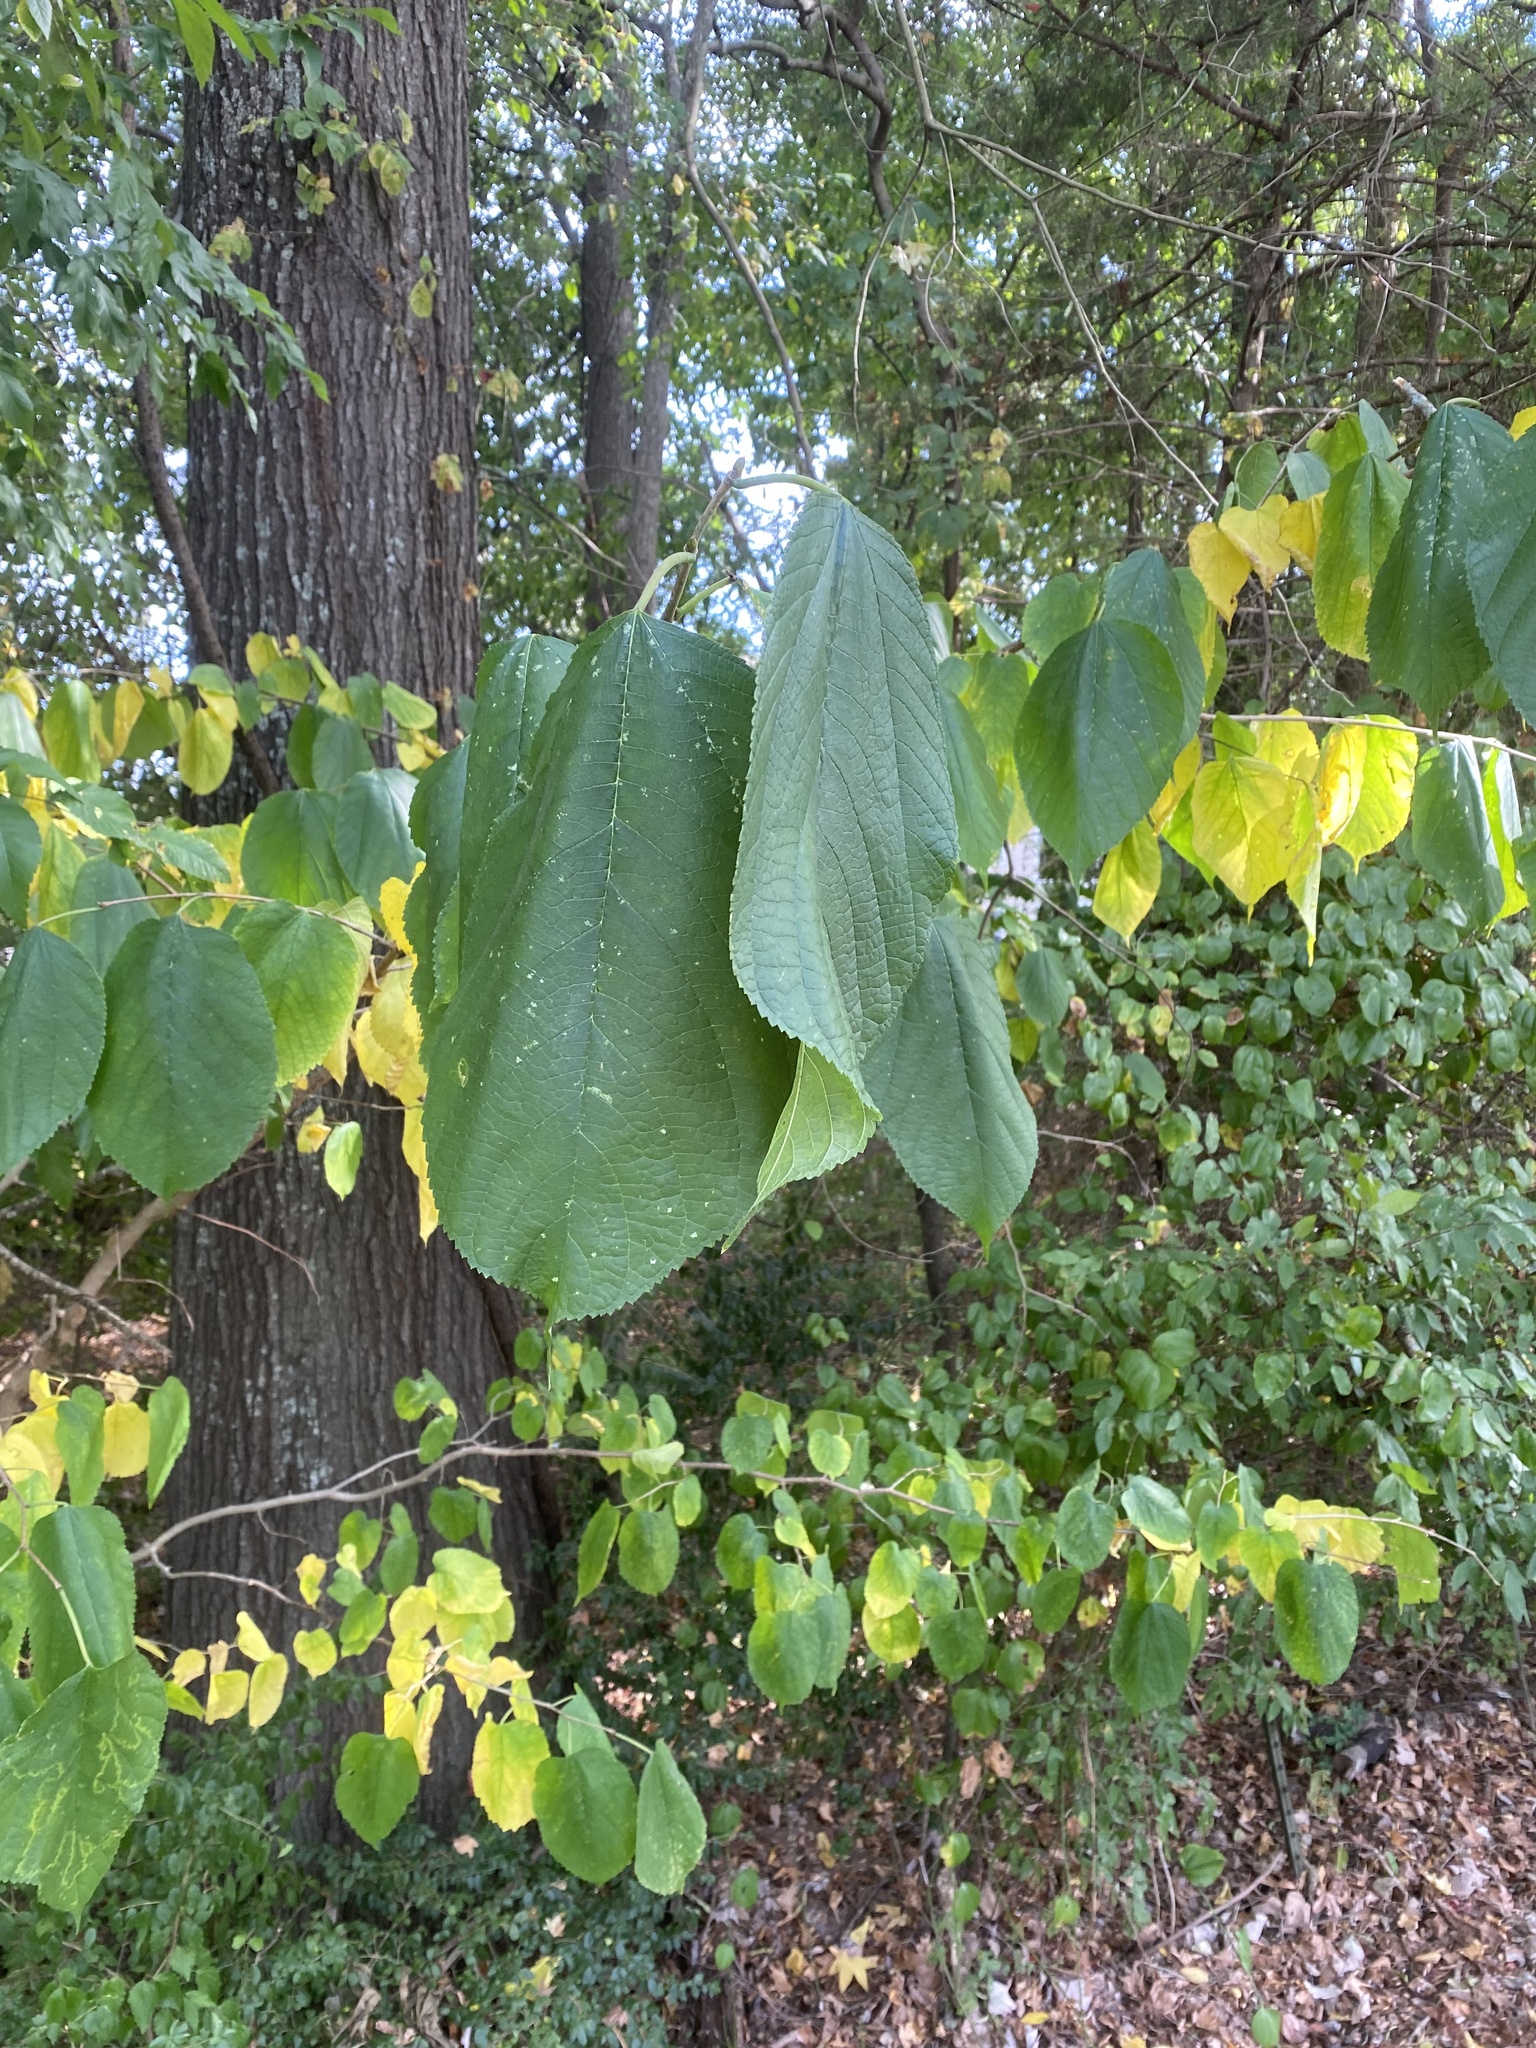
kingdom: Plantae
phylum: Tracheophyta
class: Magnoliopsida
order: Rosales
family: Moraceae
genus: Morus
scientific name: Morus rubra
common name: Red mulberry
